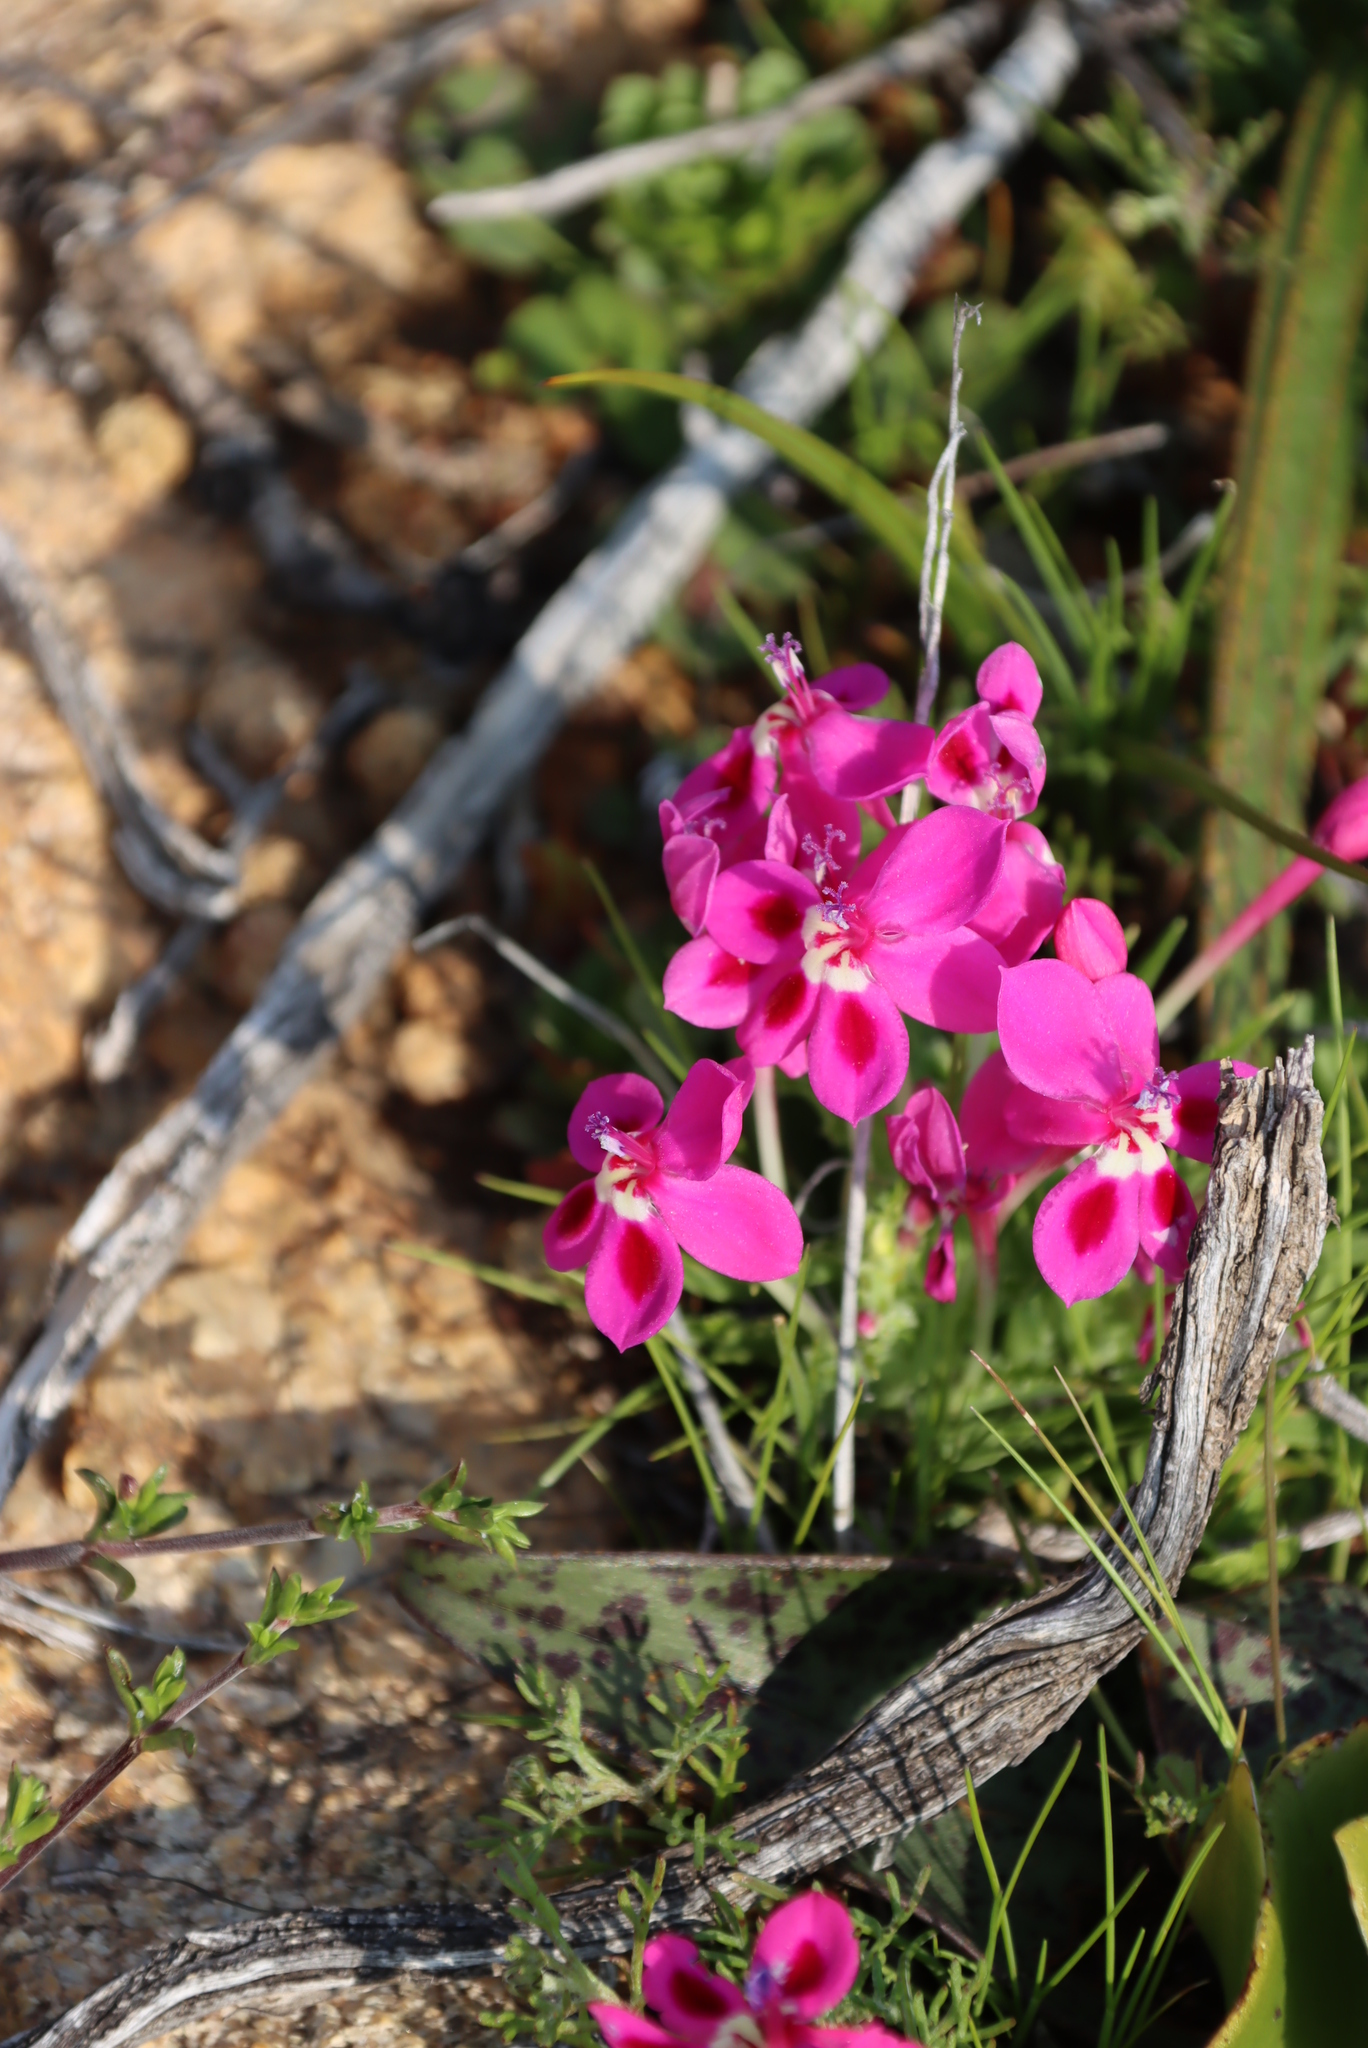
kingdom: Plantae
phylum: Tracheophyta
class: Liliopsida
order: Asparagales
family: Iridaceae
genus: Lapeirousia
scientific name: Lapeirousia silenoides
